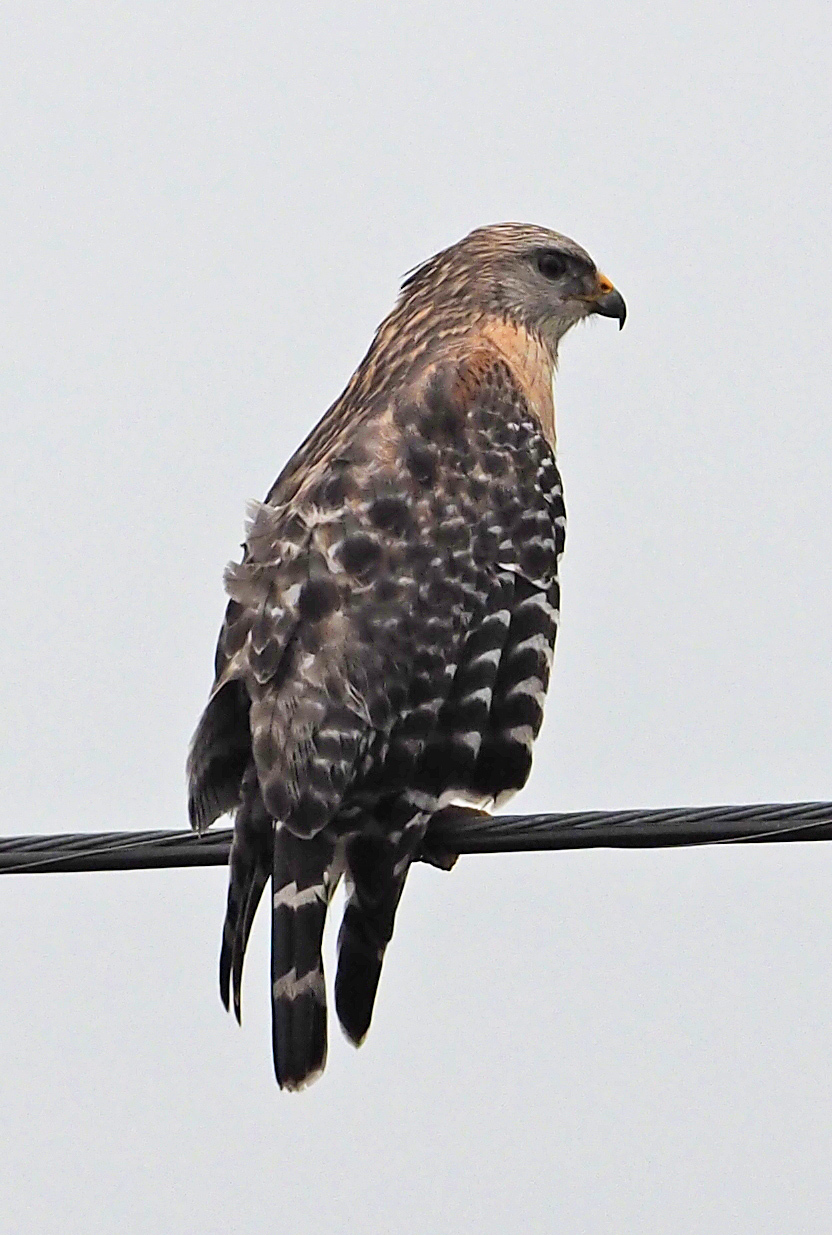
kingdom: Animalia
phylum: Chordata
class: Aves
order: Accipitriformes
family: Accipitridae
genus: Buteo
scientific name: Buteo lineatus
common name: Red-shouldered hawk
